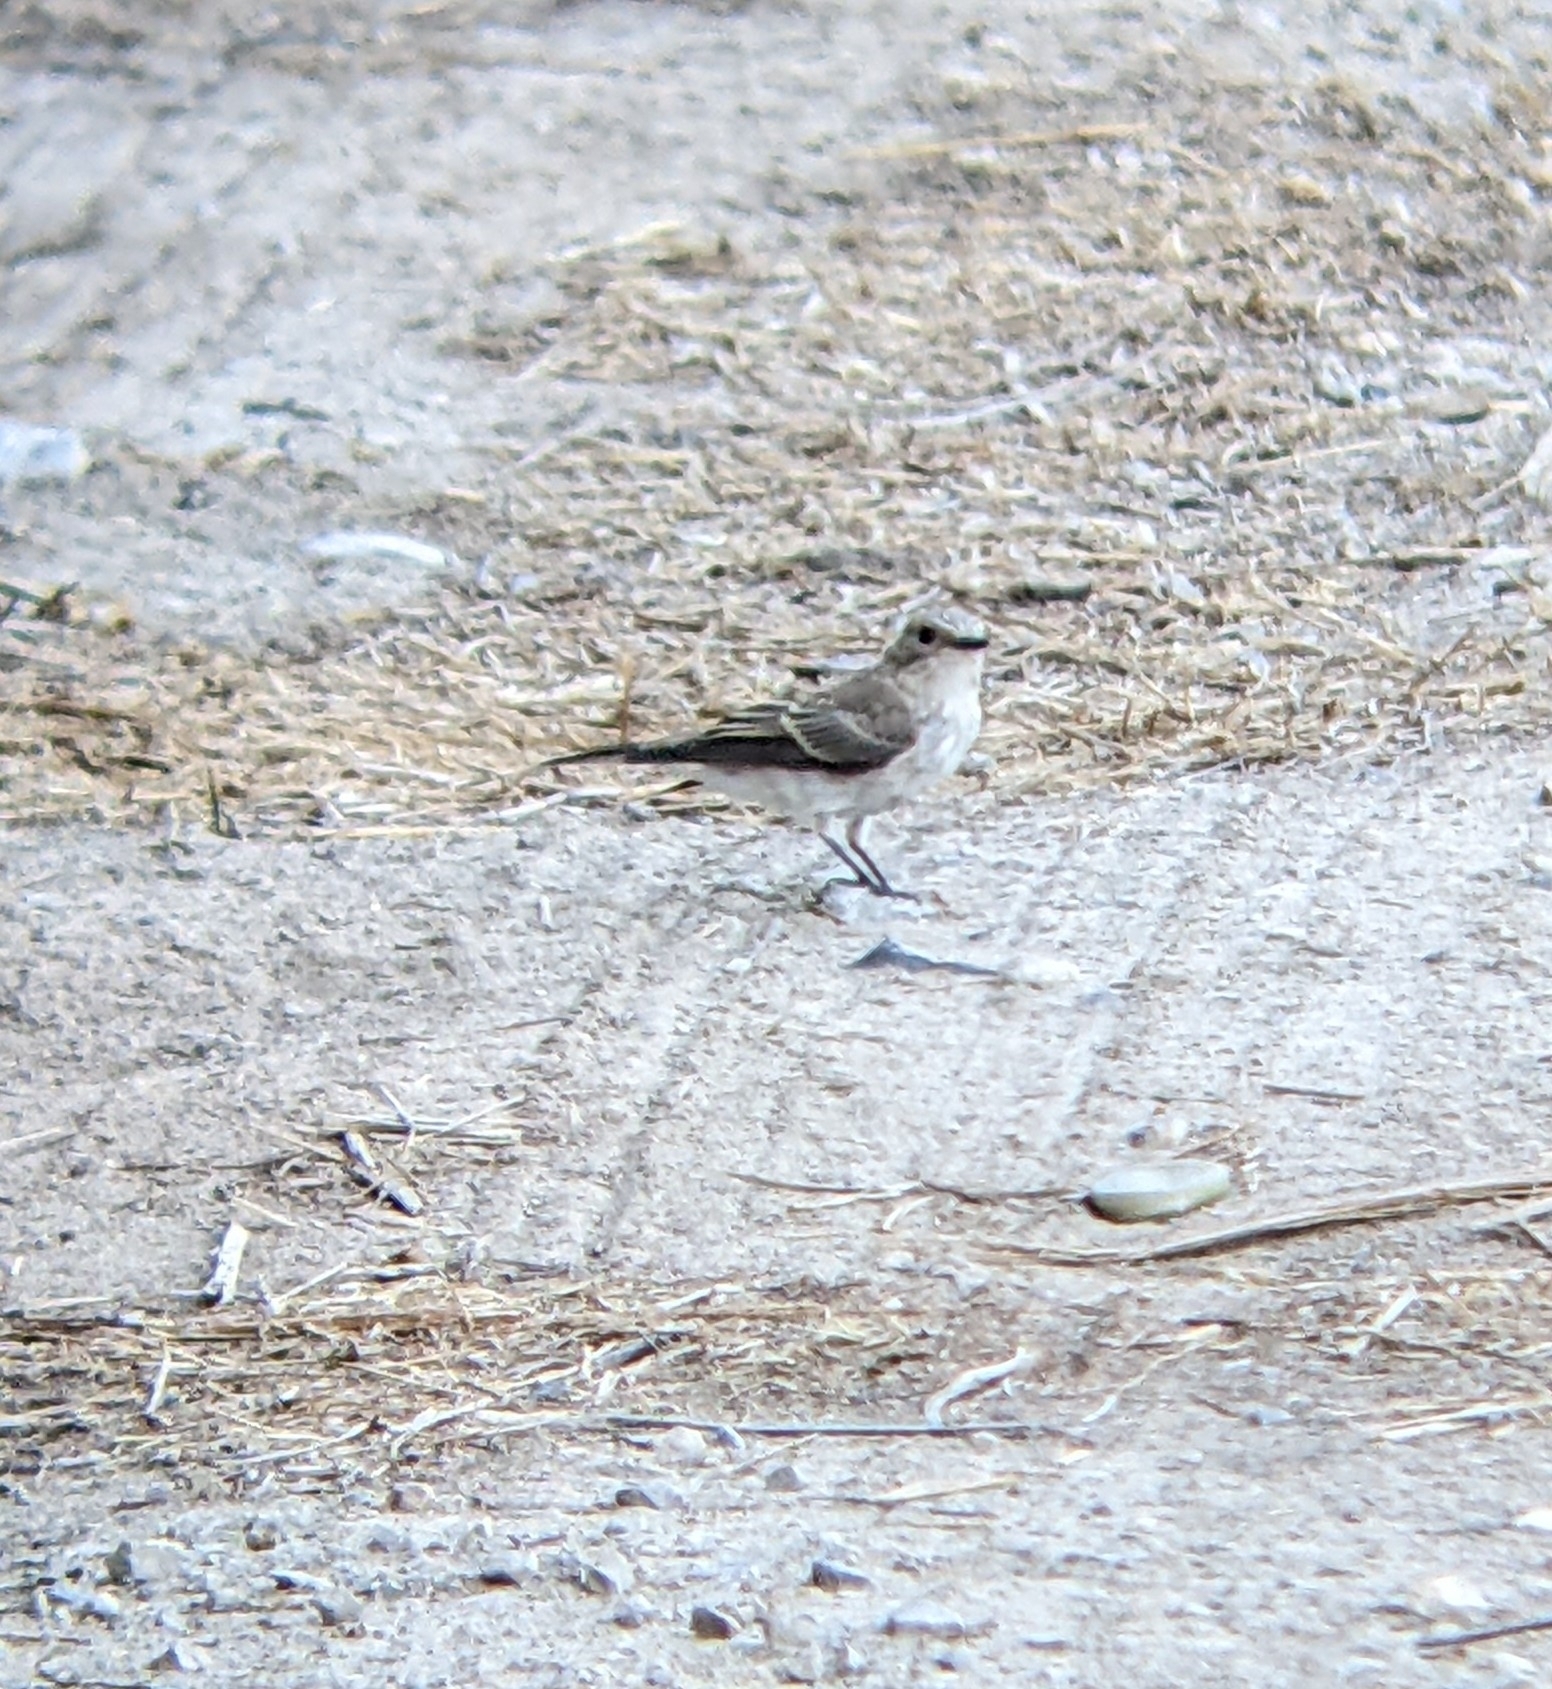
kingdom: Animalia
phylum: Chordata
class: Aves
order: Passeriformes
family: Muscicapidae
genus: Muscicapa
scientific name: Muscicapa striata
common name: Spotted flycatcher
